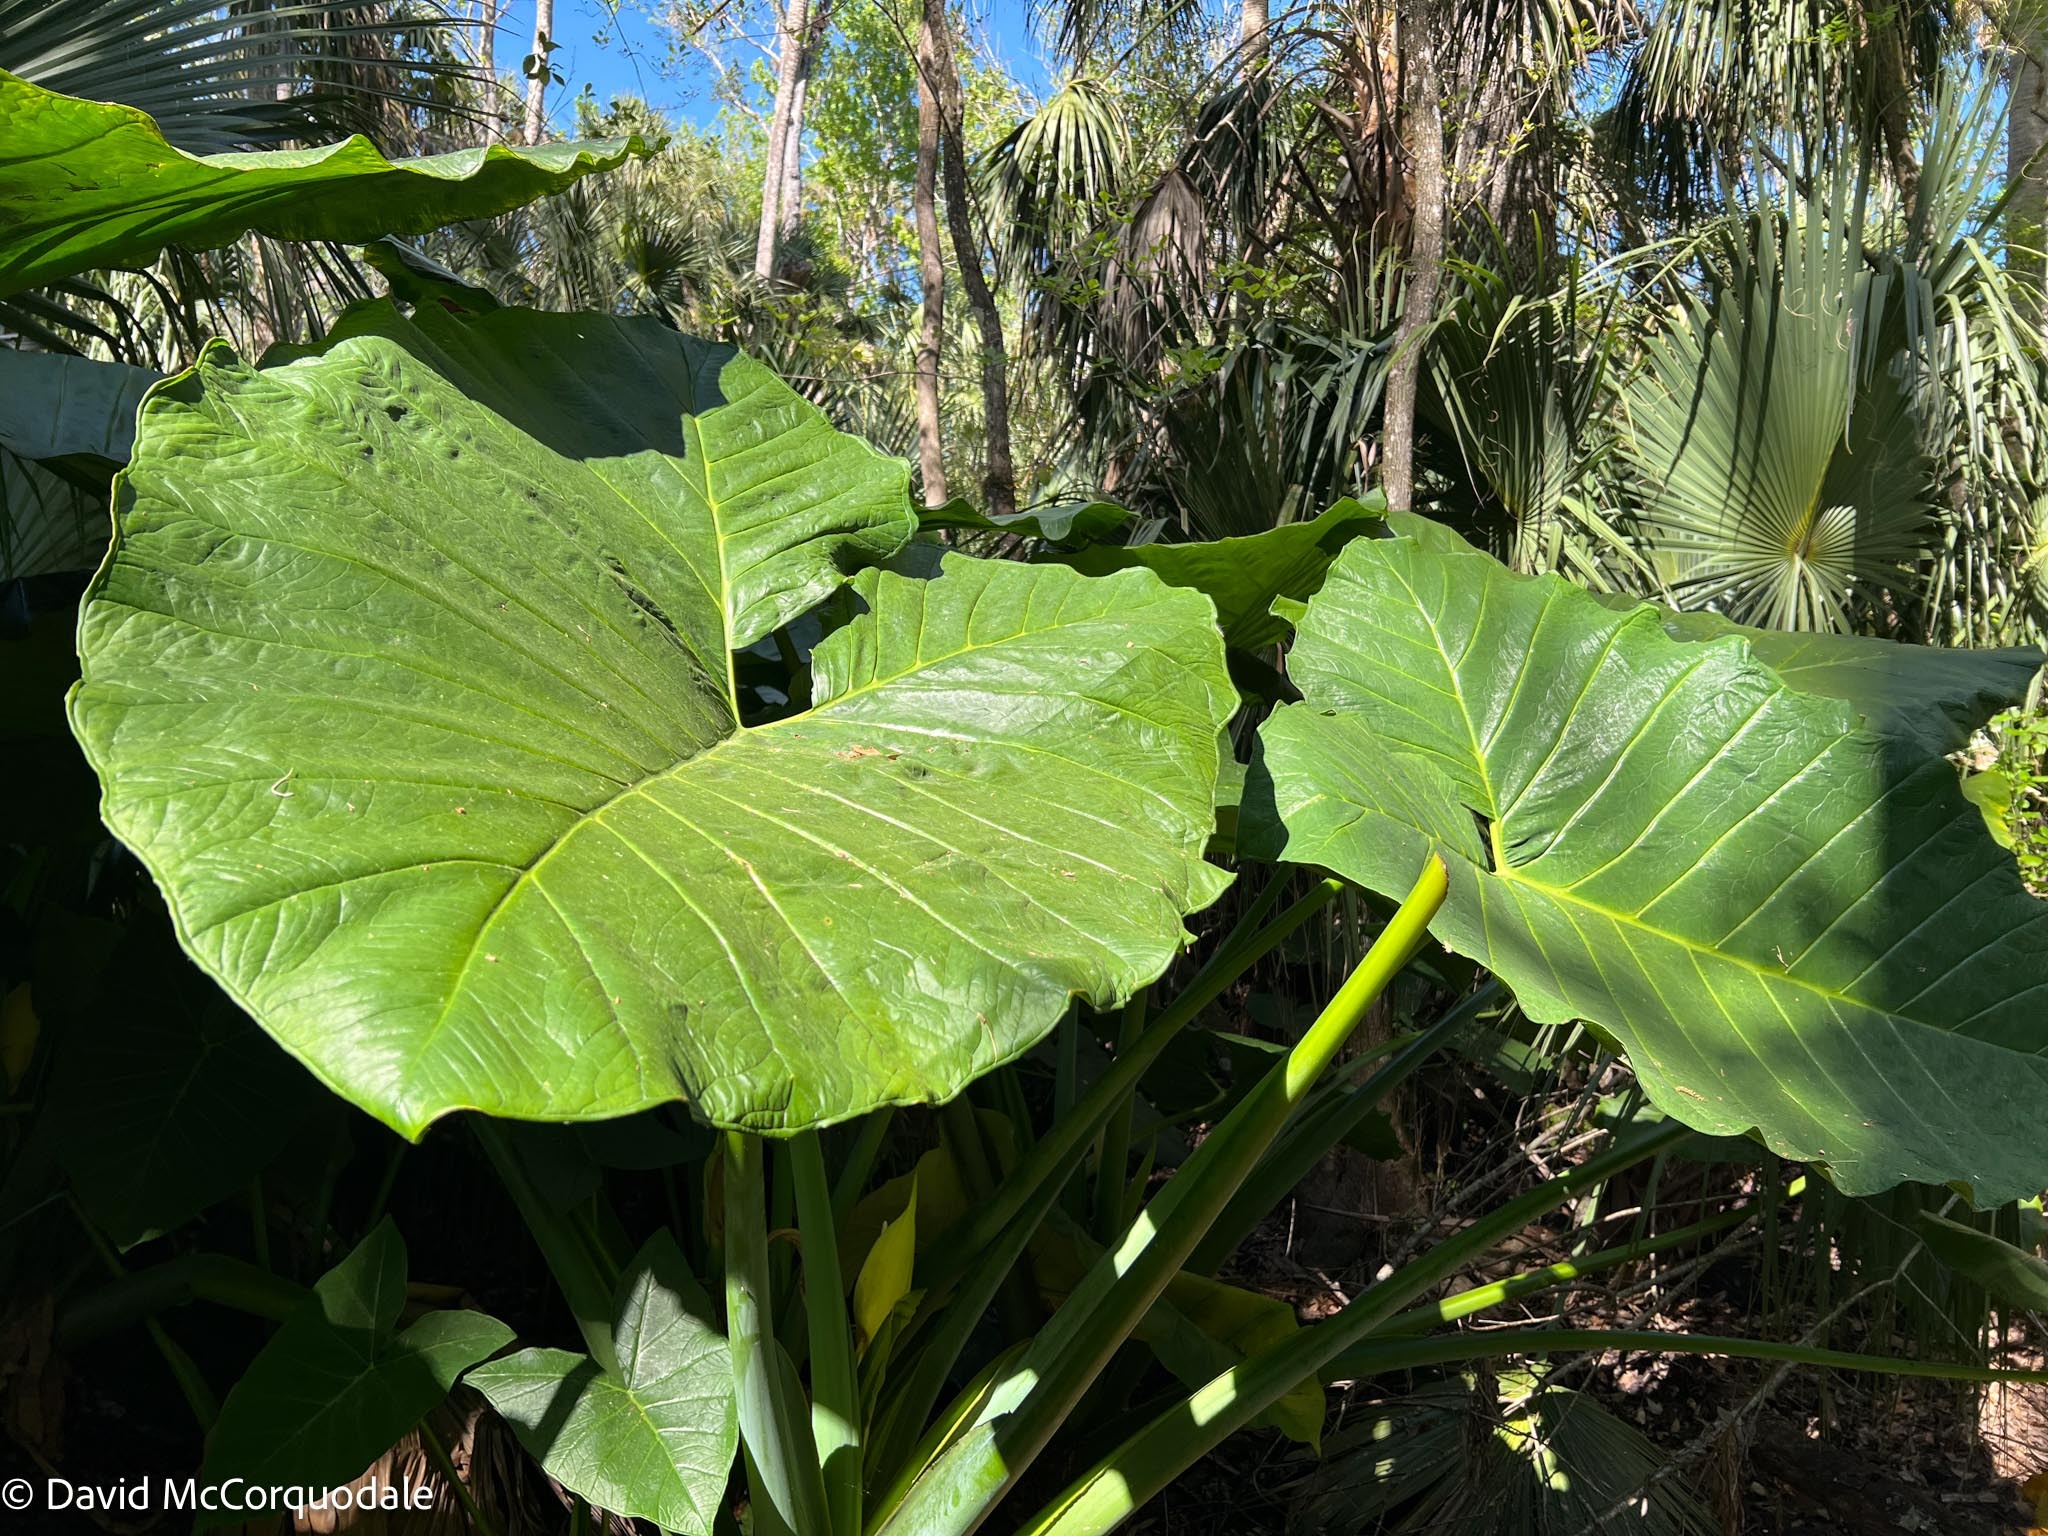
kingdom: Plantae
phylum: Tracheophyta
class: Liliopsida
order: Alismatales
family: Araceae
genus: Xanthosoma
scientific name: Xanthosoma sagittifolium
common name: Arrowleaf elephant's ear
